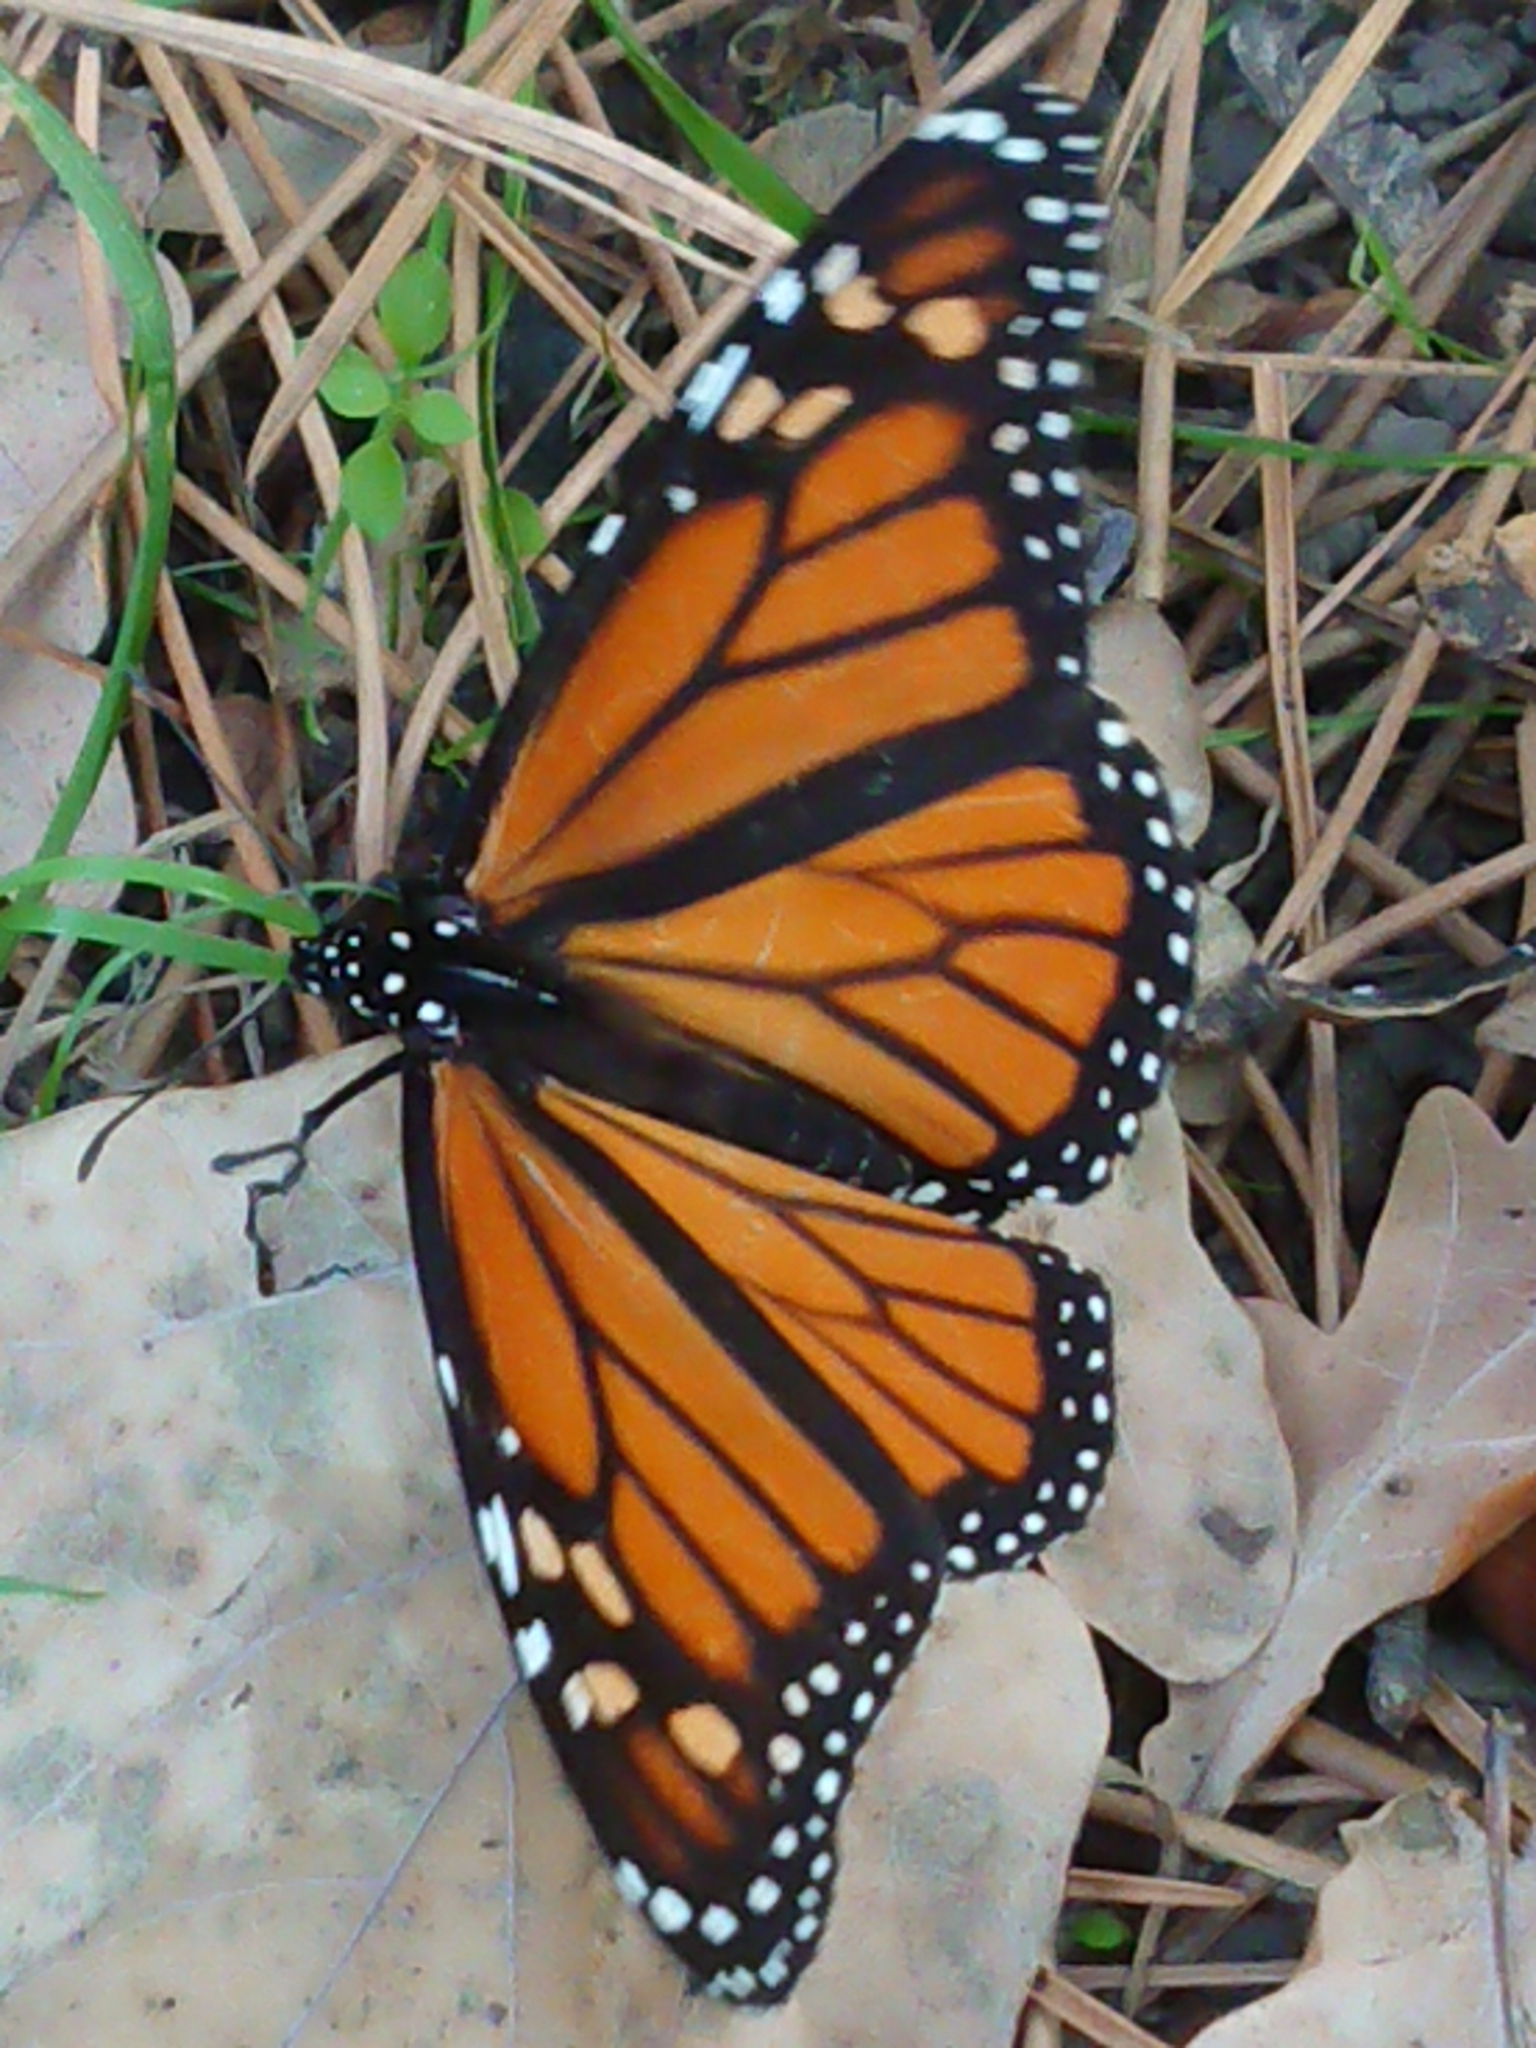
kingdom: Animalia
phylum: Arthropoda
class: Insecta
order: Lepidoptera
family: Nymphalidae
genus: Danaus
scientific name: Danaus plexippus
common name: Monarch
